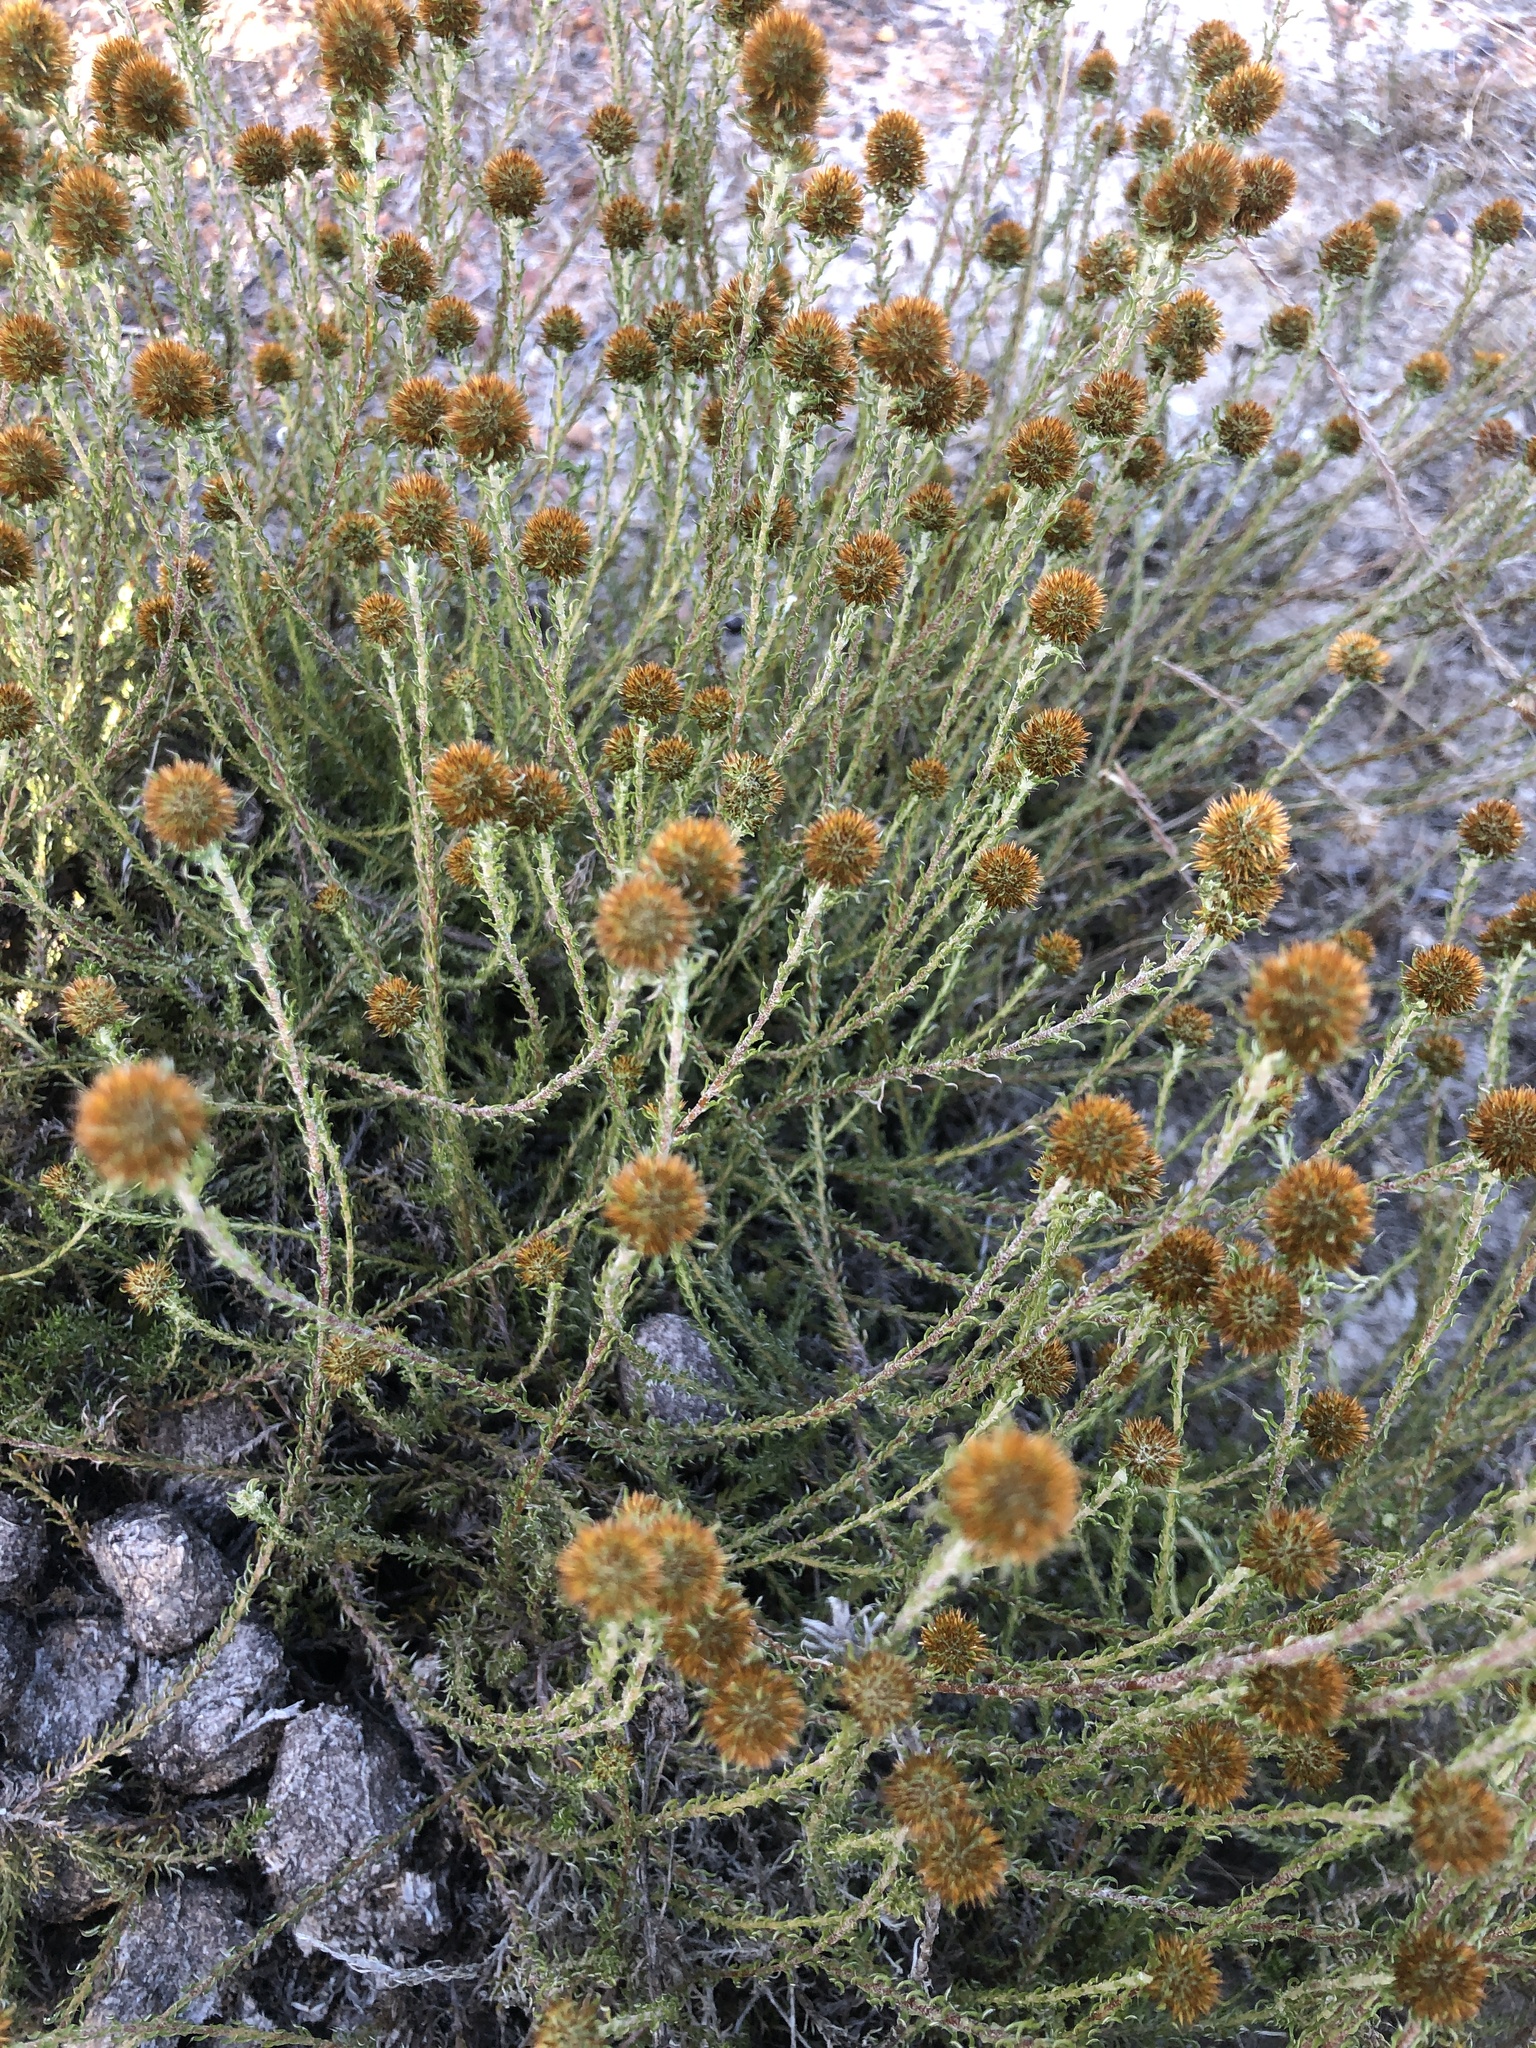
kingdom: Plantae
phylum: Tracheophyta
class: Magnoliopsida
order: Asterales
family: Asteraceae
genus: Disparago
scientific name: Disparago anomala
